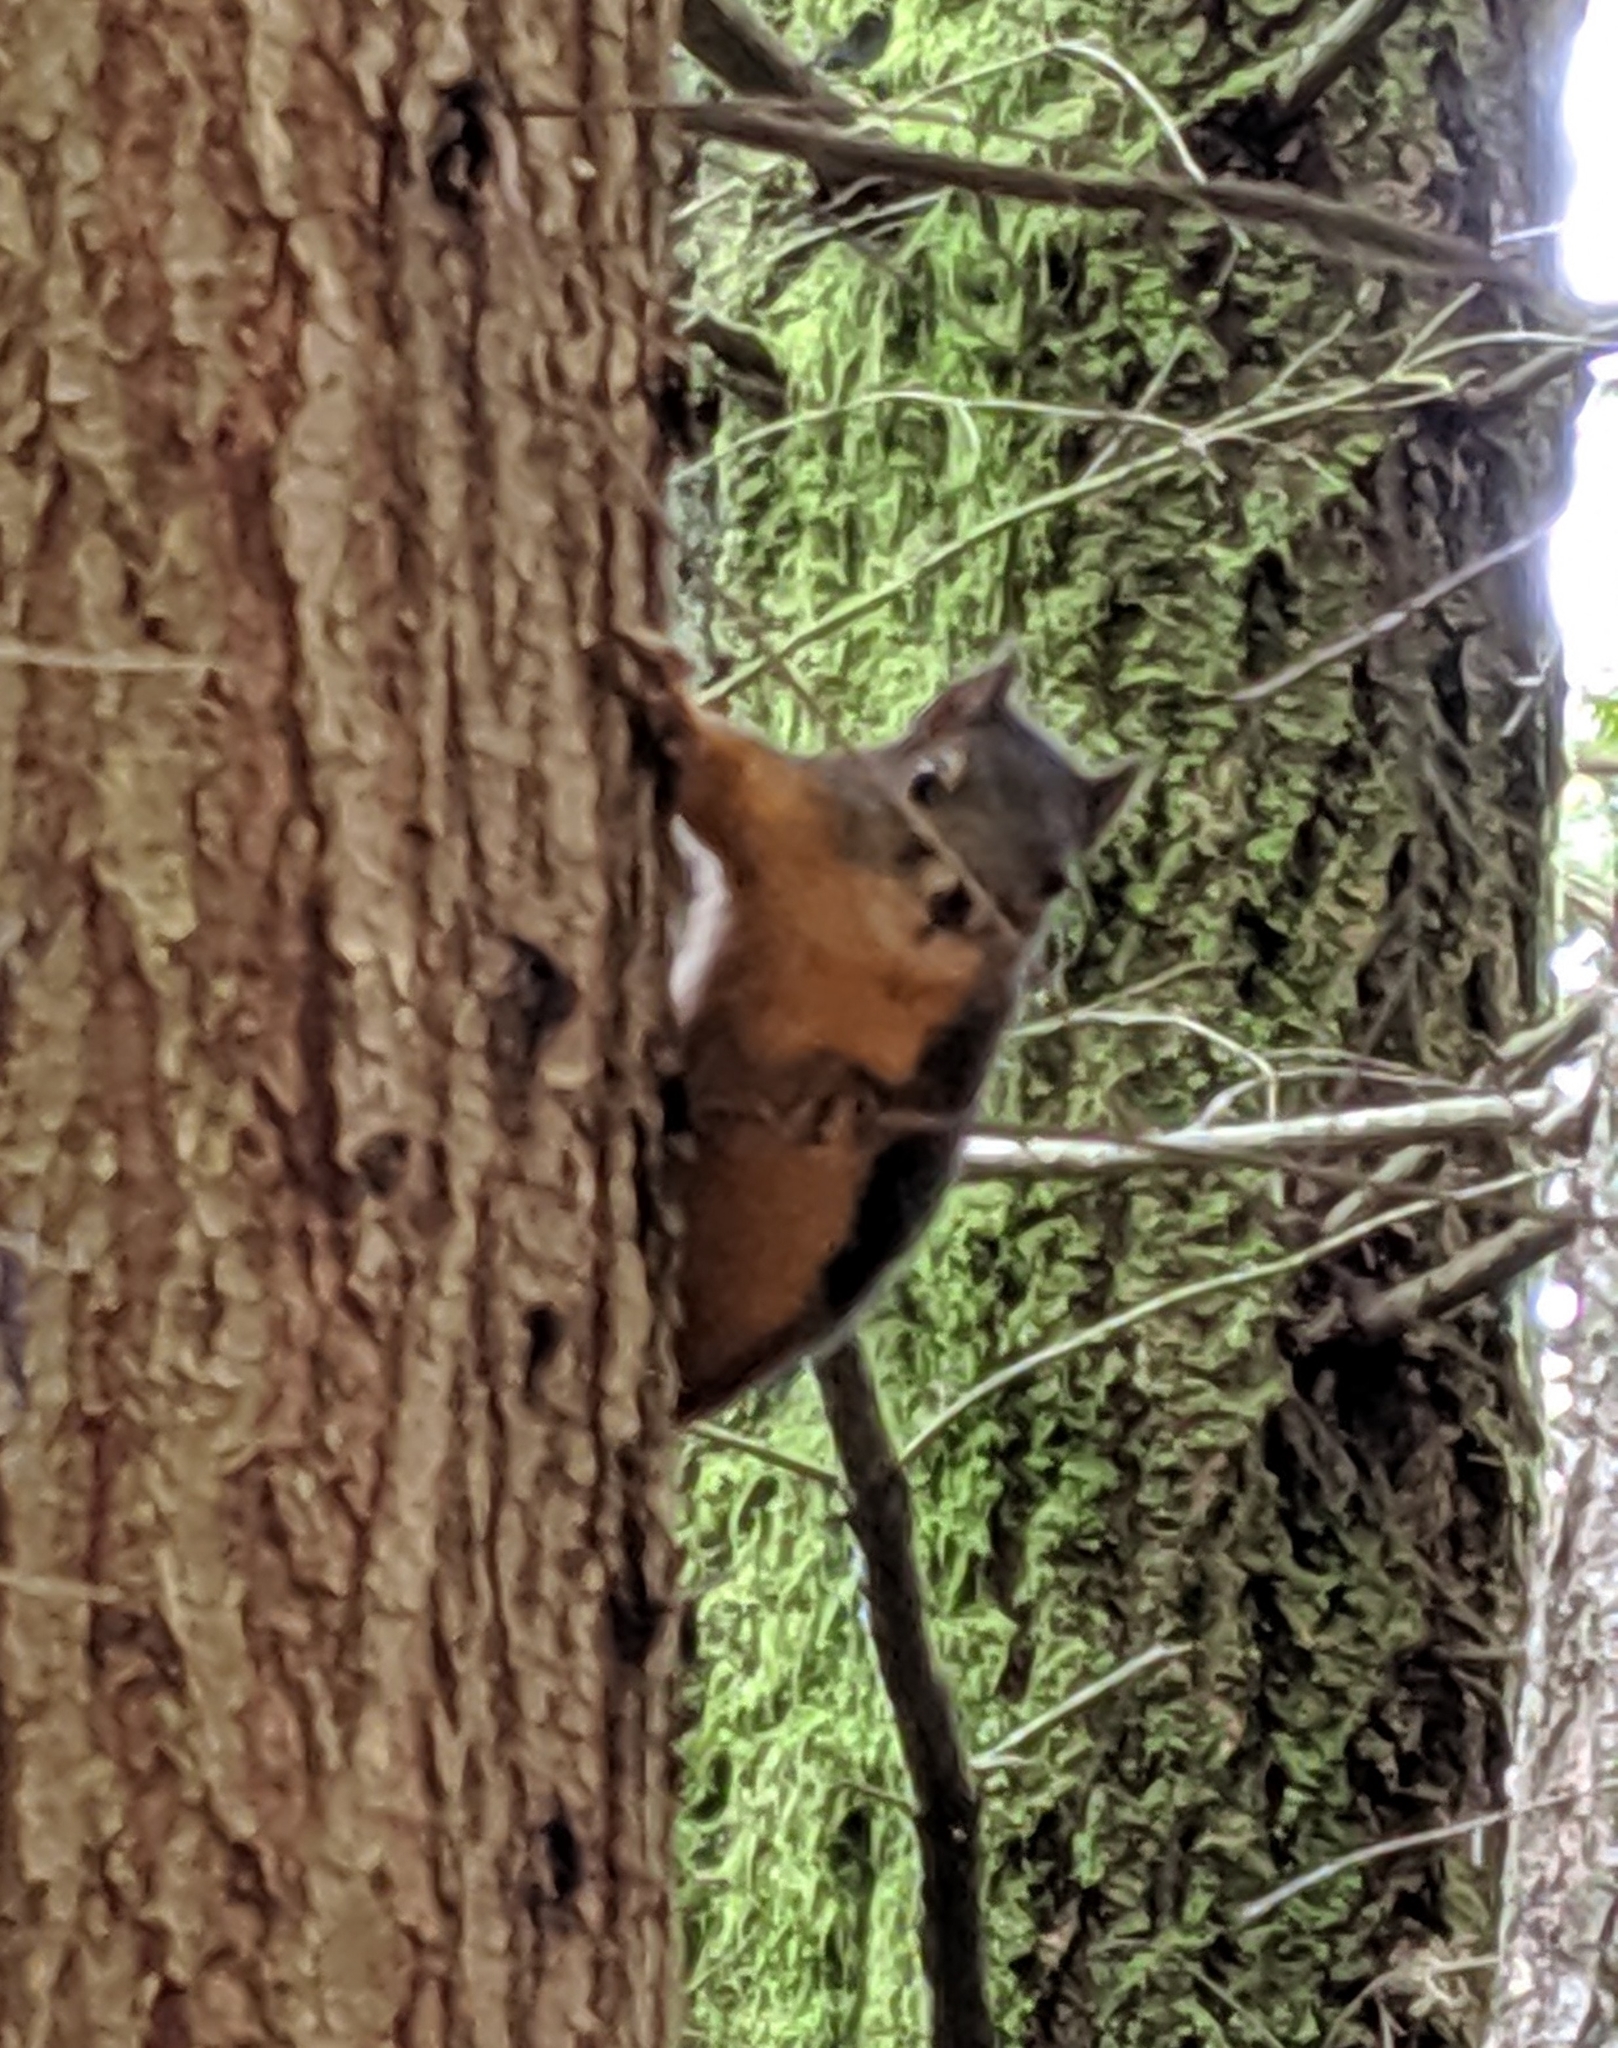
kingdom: Animalia
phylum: Chordata
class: Mammalia
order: Rodentia
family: Sciuridae
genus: Tamiasciurus
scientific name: Tamiasciurus douglasii
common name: Douglas's squirrel
